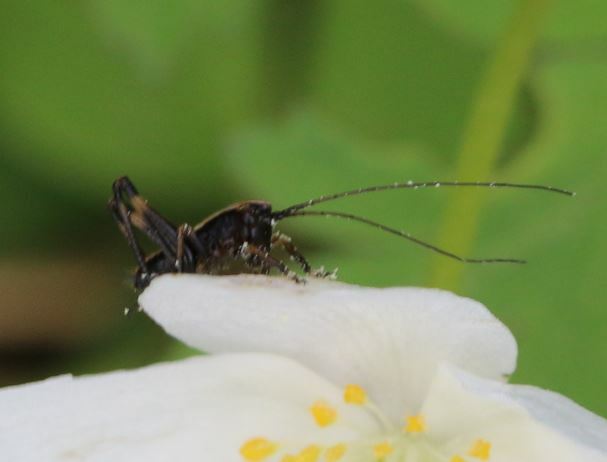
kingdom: Animalia
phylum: Arthropoda
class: Insecta
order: Orthoptera
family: Tettigoniidae
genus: Pholidoptera
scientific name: Pholidoptera griseoaptera
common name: Dark bush-cricket
